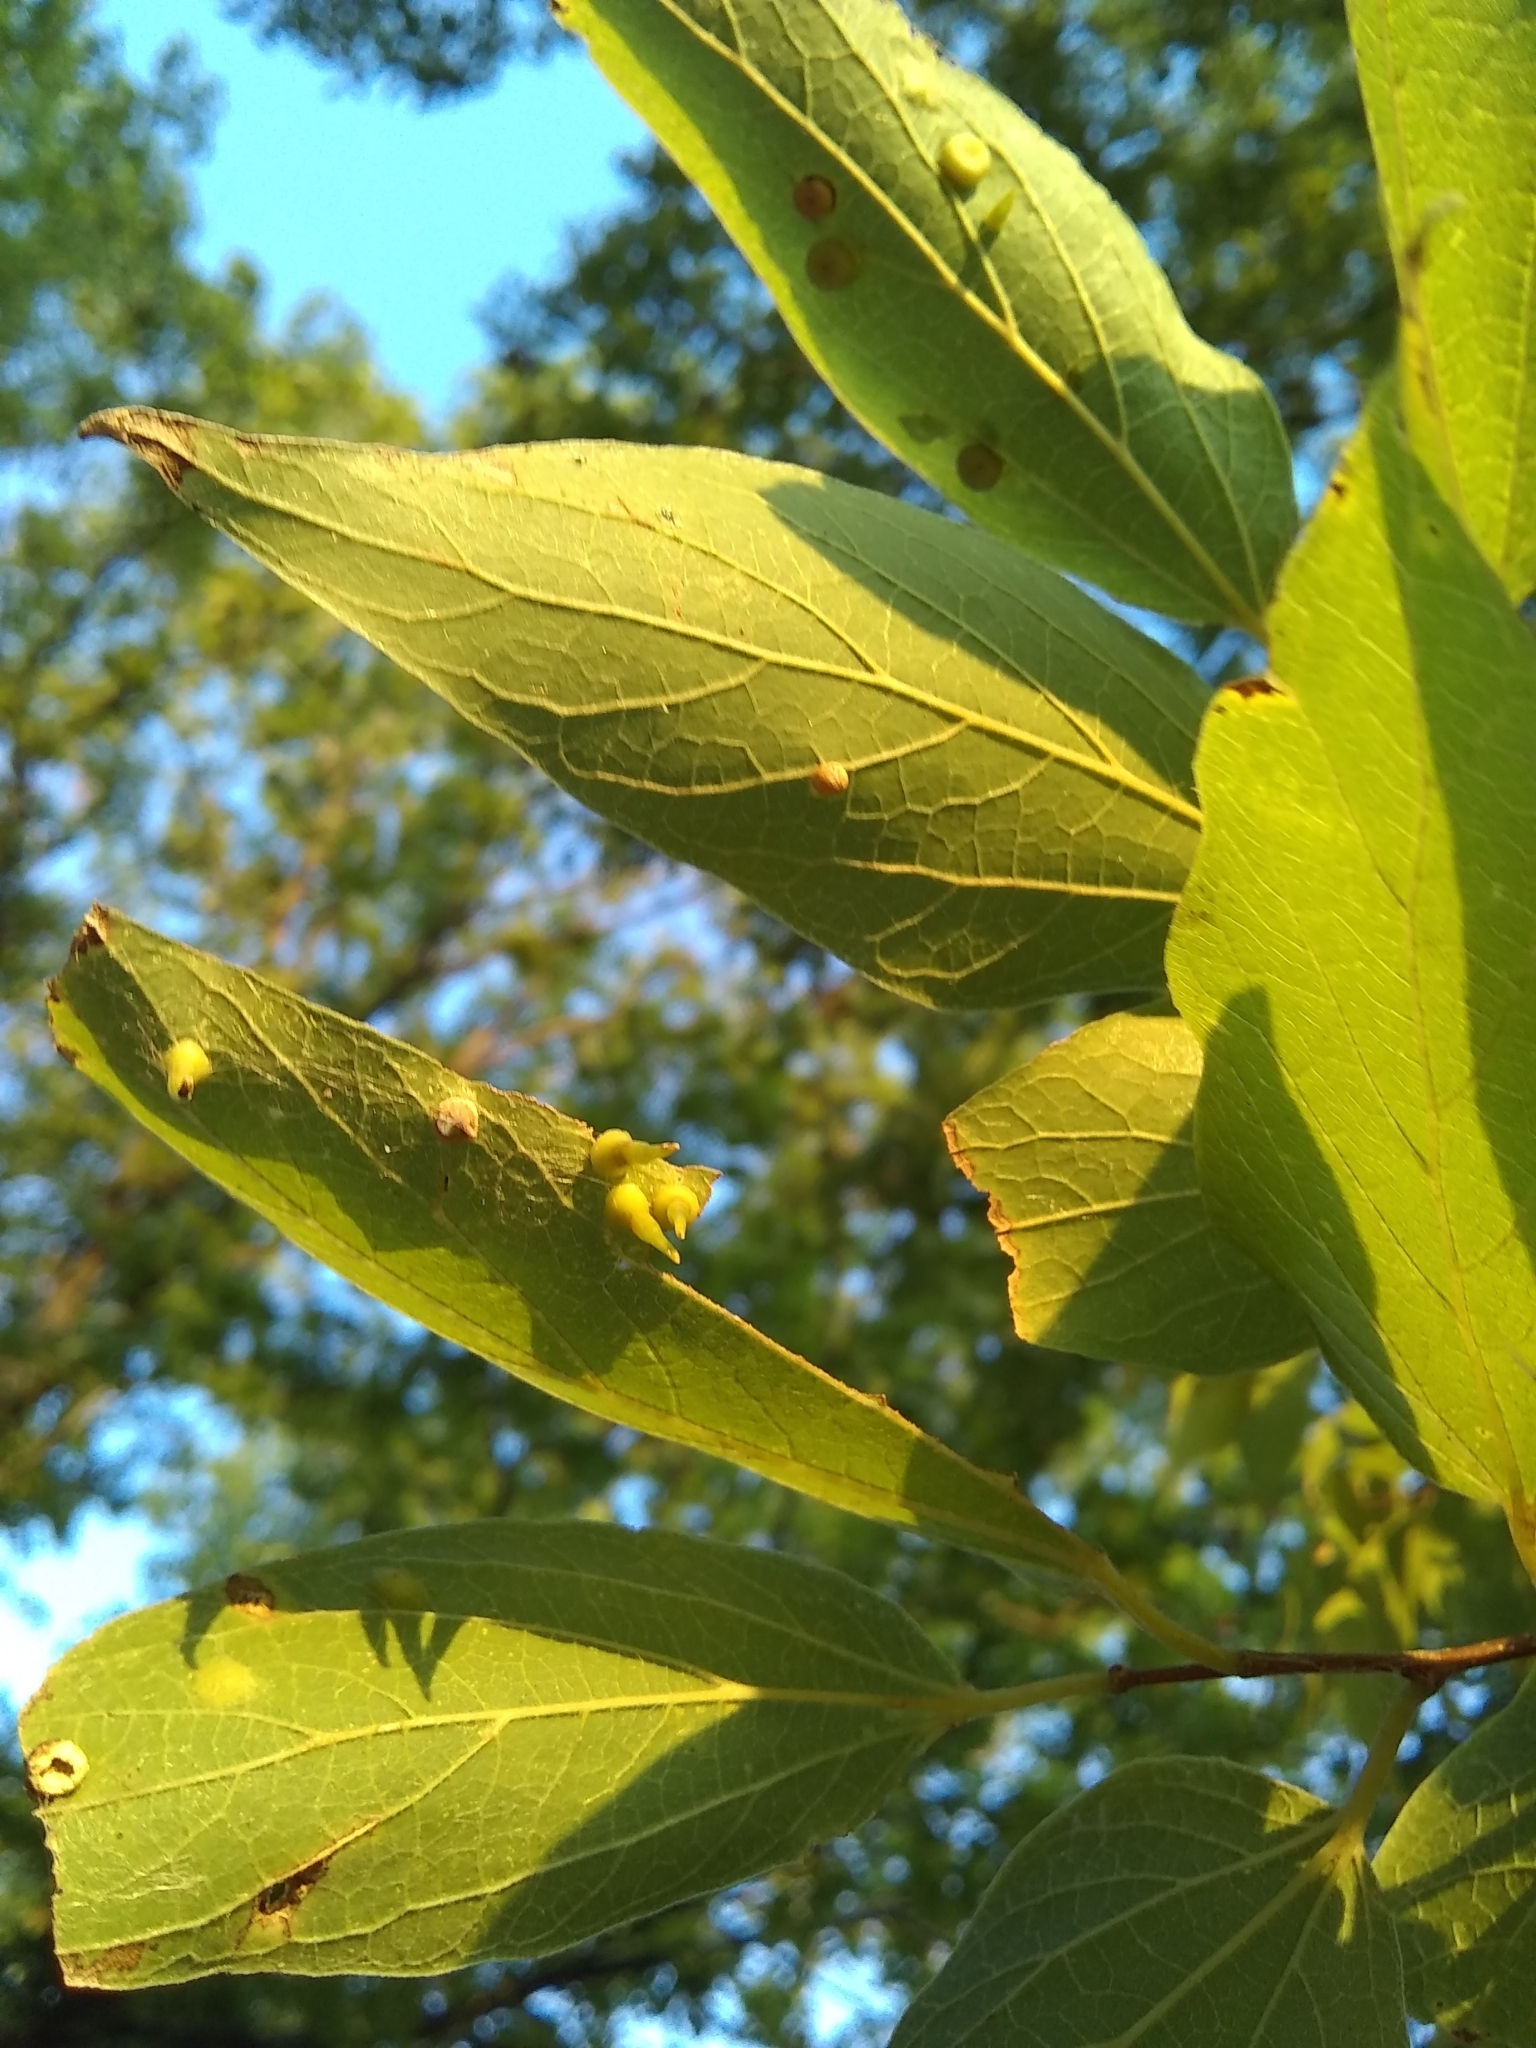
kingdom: Animalia
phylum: Arthropoda
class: Insecta
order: Diptera
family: Cecidomyiidae
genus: Celticecis
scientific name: Celticecis spiniformis
